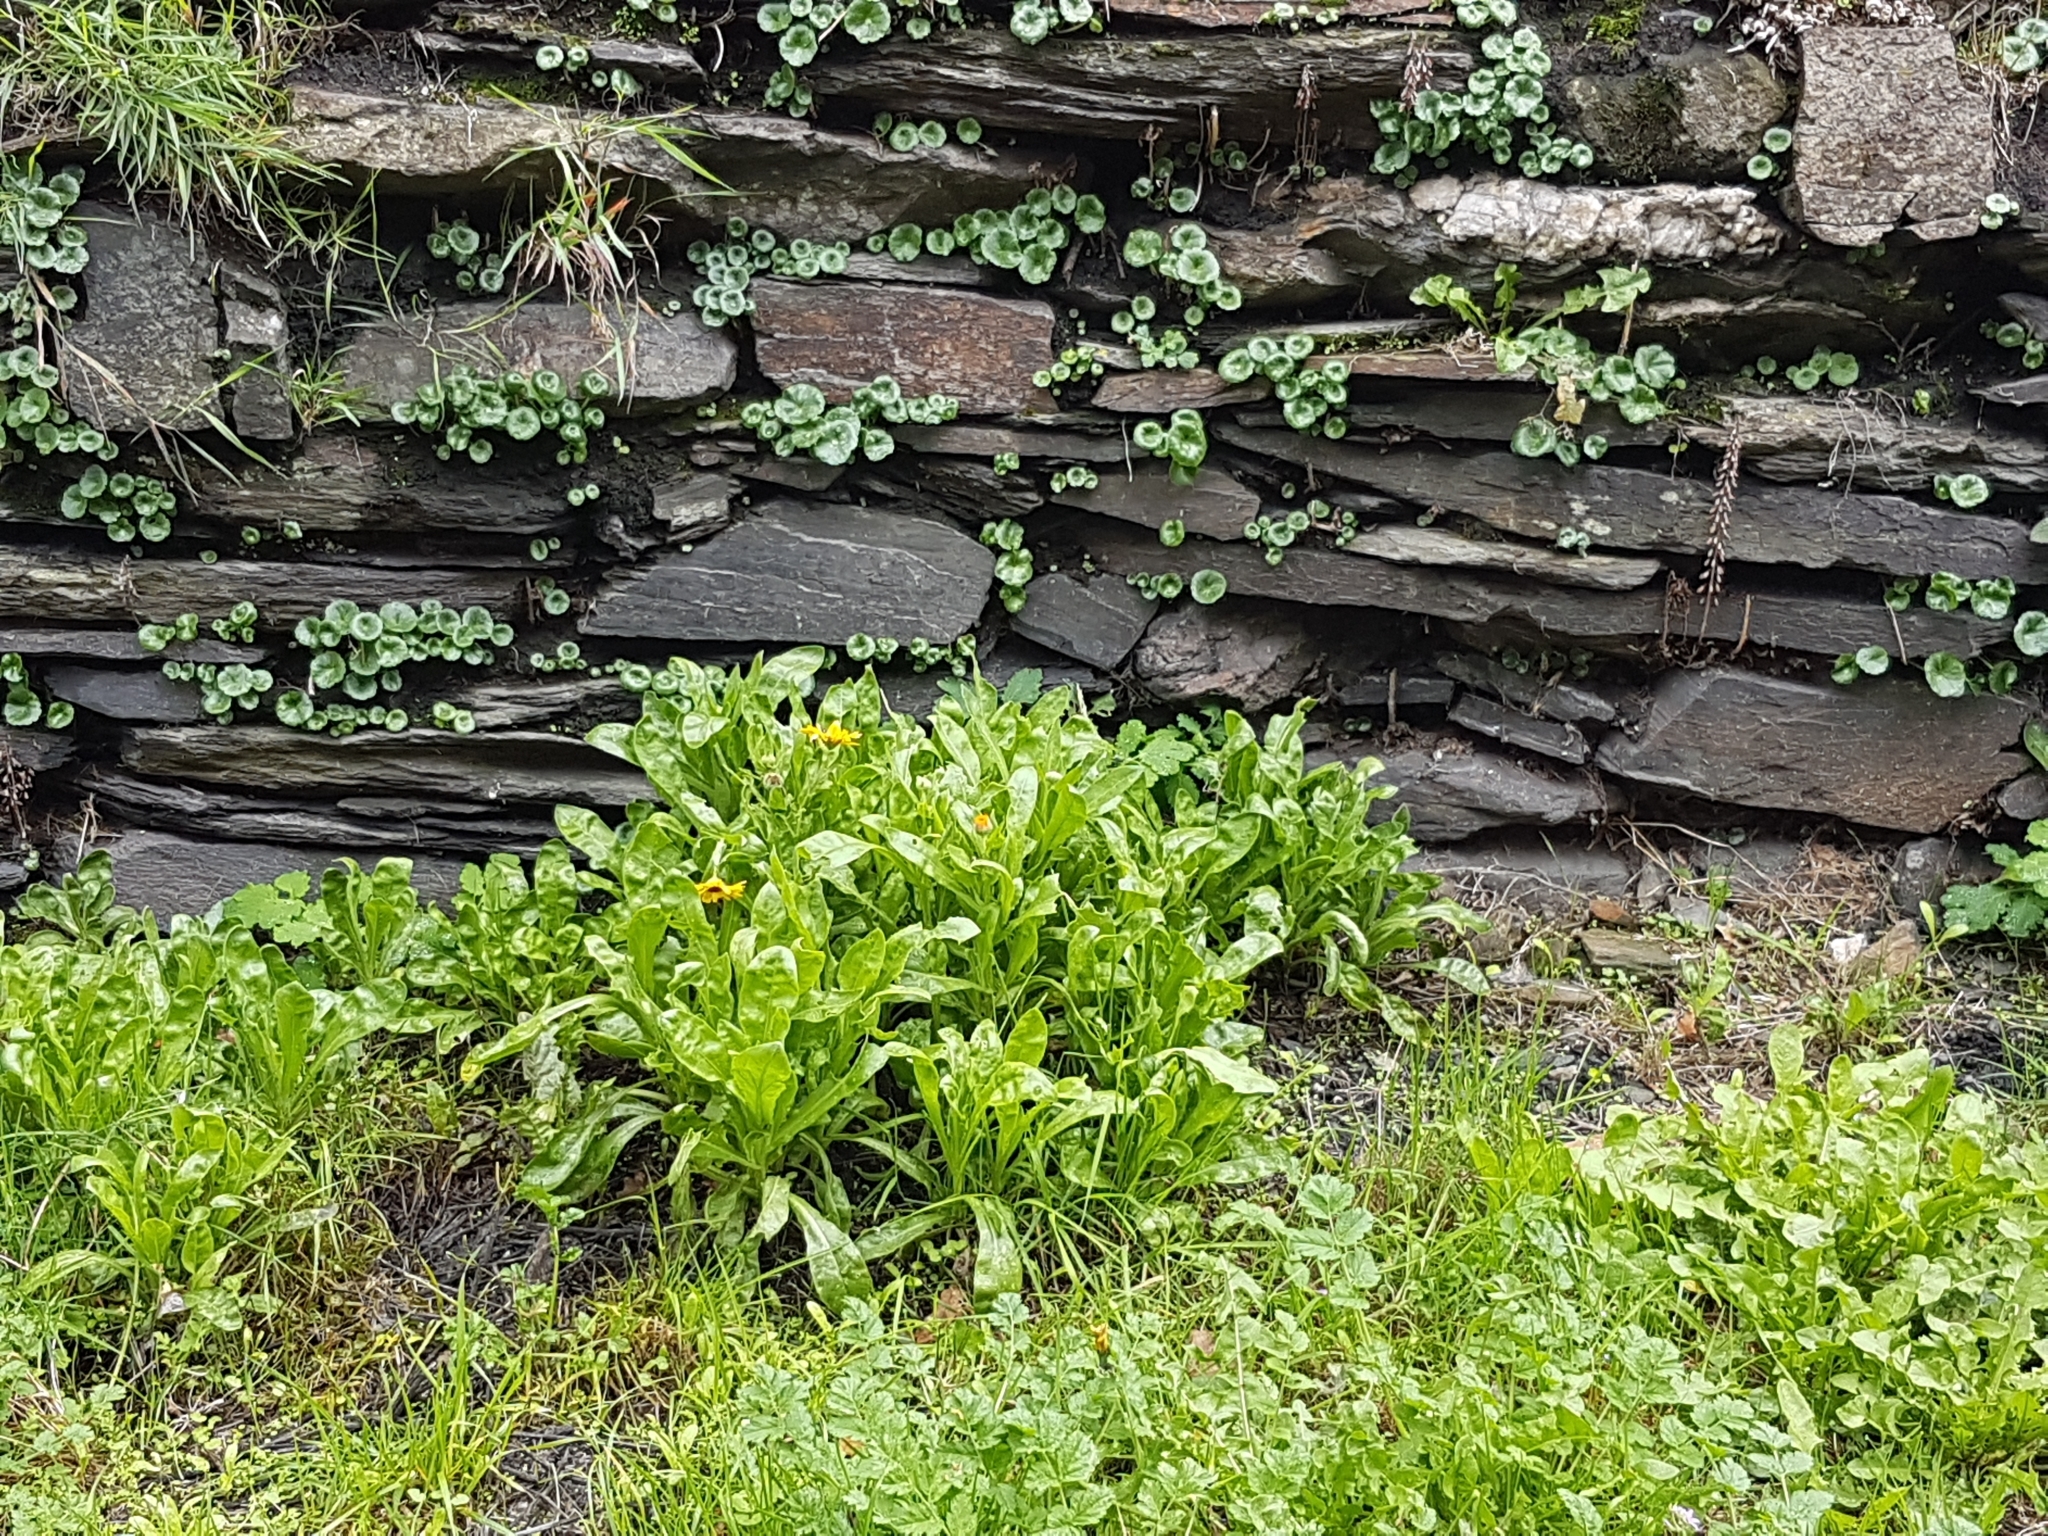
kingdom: Plantae
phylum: Tracheophyta
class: Magnoliopsida
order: Asterales
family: Asteraceae
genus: Calendula
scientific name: Calendula officinalis
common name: Pot marigold
